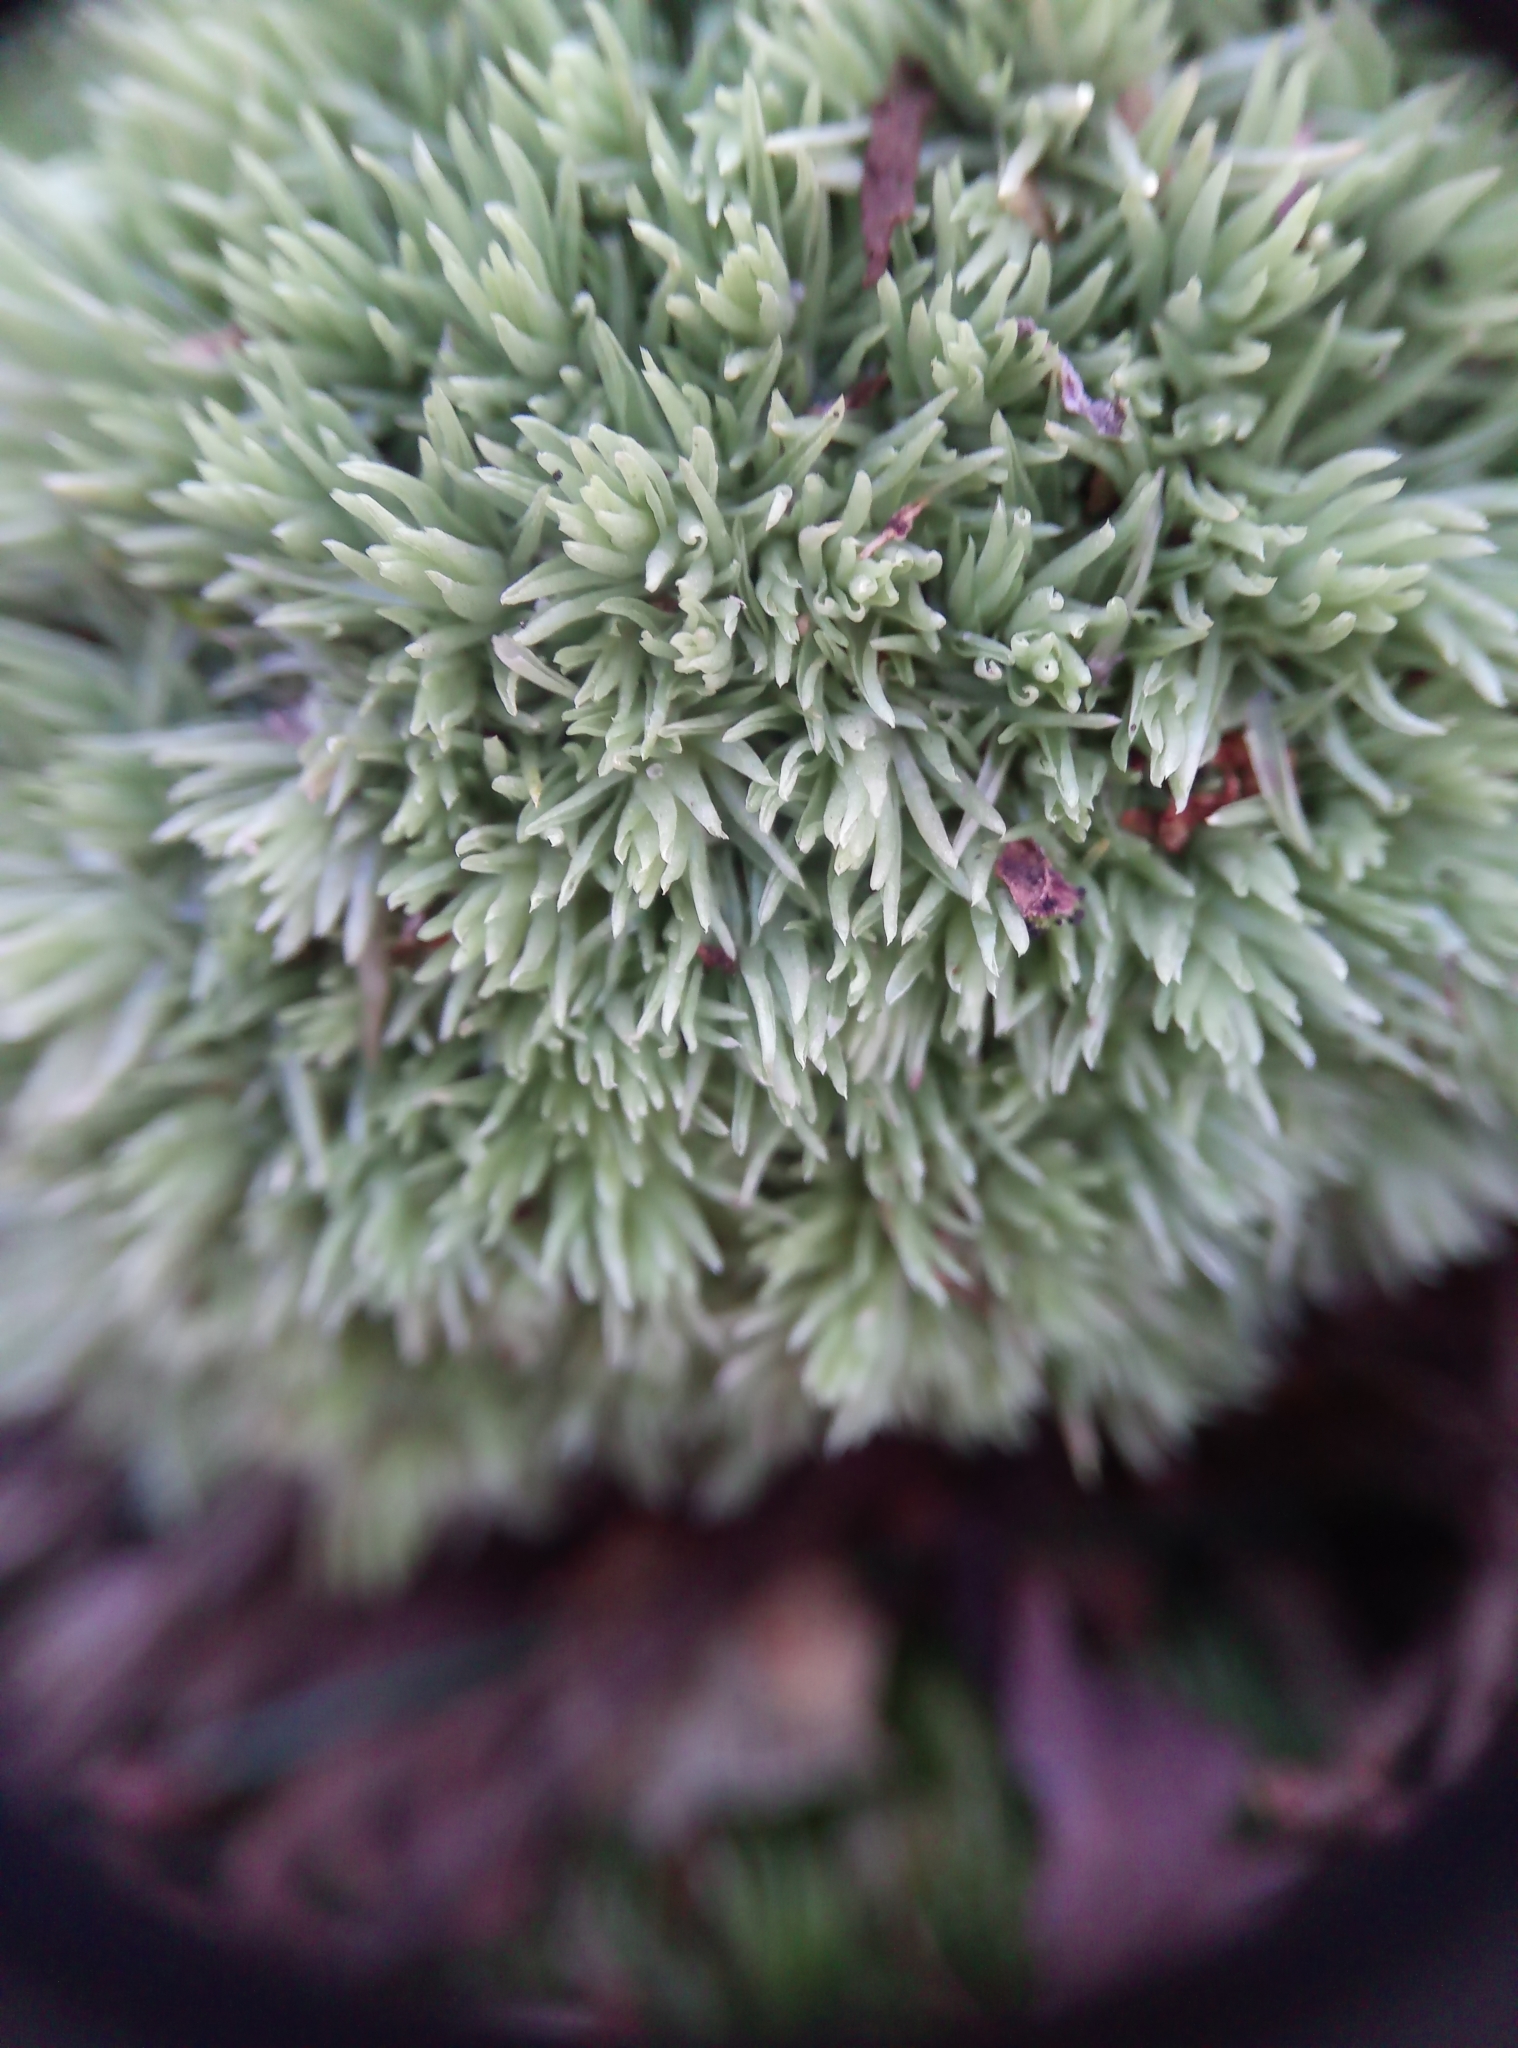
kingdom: Plantae
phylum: Bryophyta
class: Bryopsida
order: Dicranales
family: Leucobryaceae
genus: Leucobryum
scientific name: Leucobryum glaucum
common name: Large white-moss
